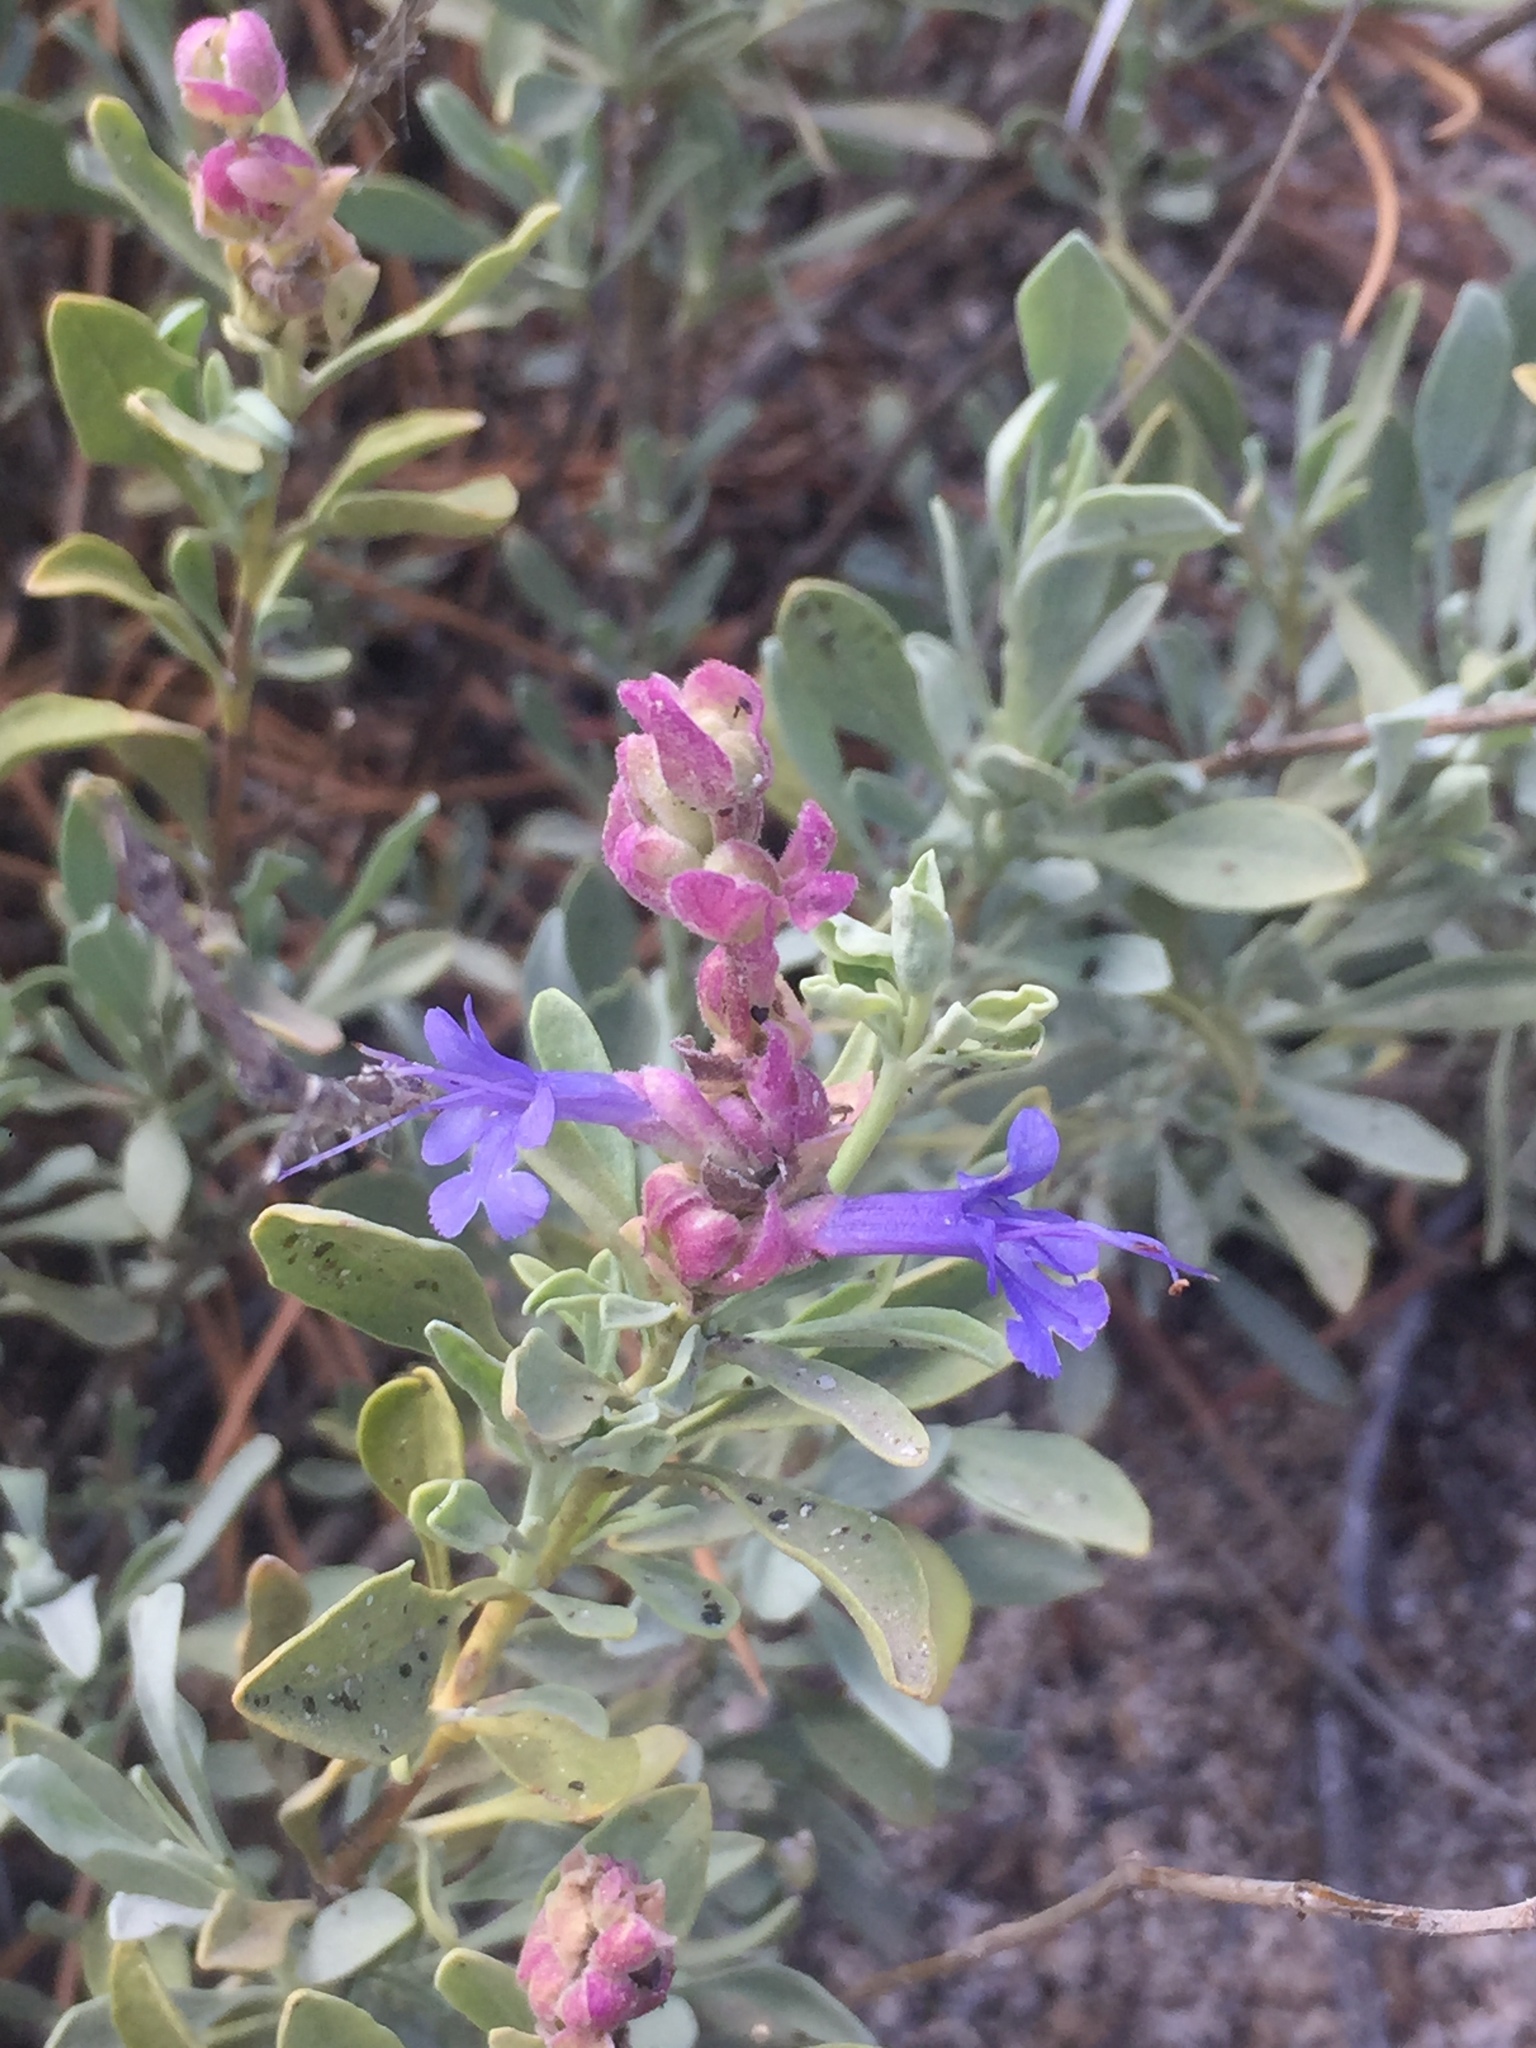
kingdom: Plantae
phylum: Tracheophyta
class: Magnoliopsida
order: Lamiales
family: Lamiaceae
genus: Salvia
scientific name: Salvia pachyphylla
